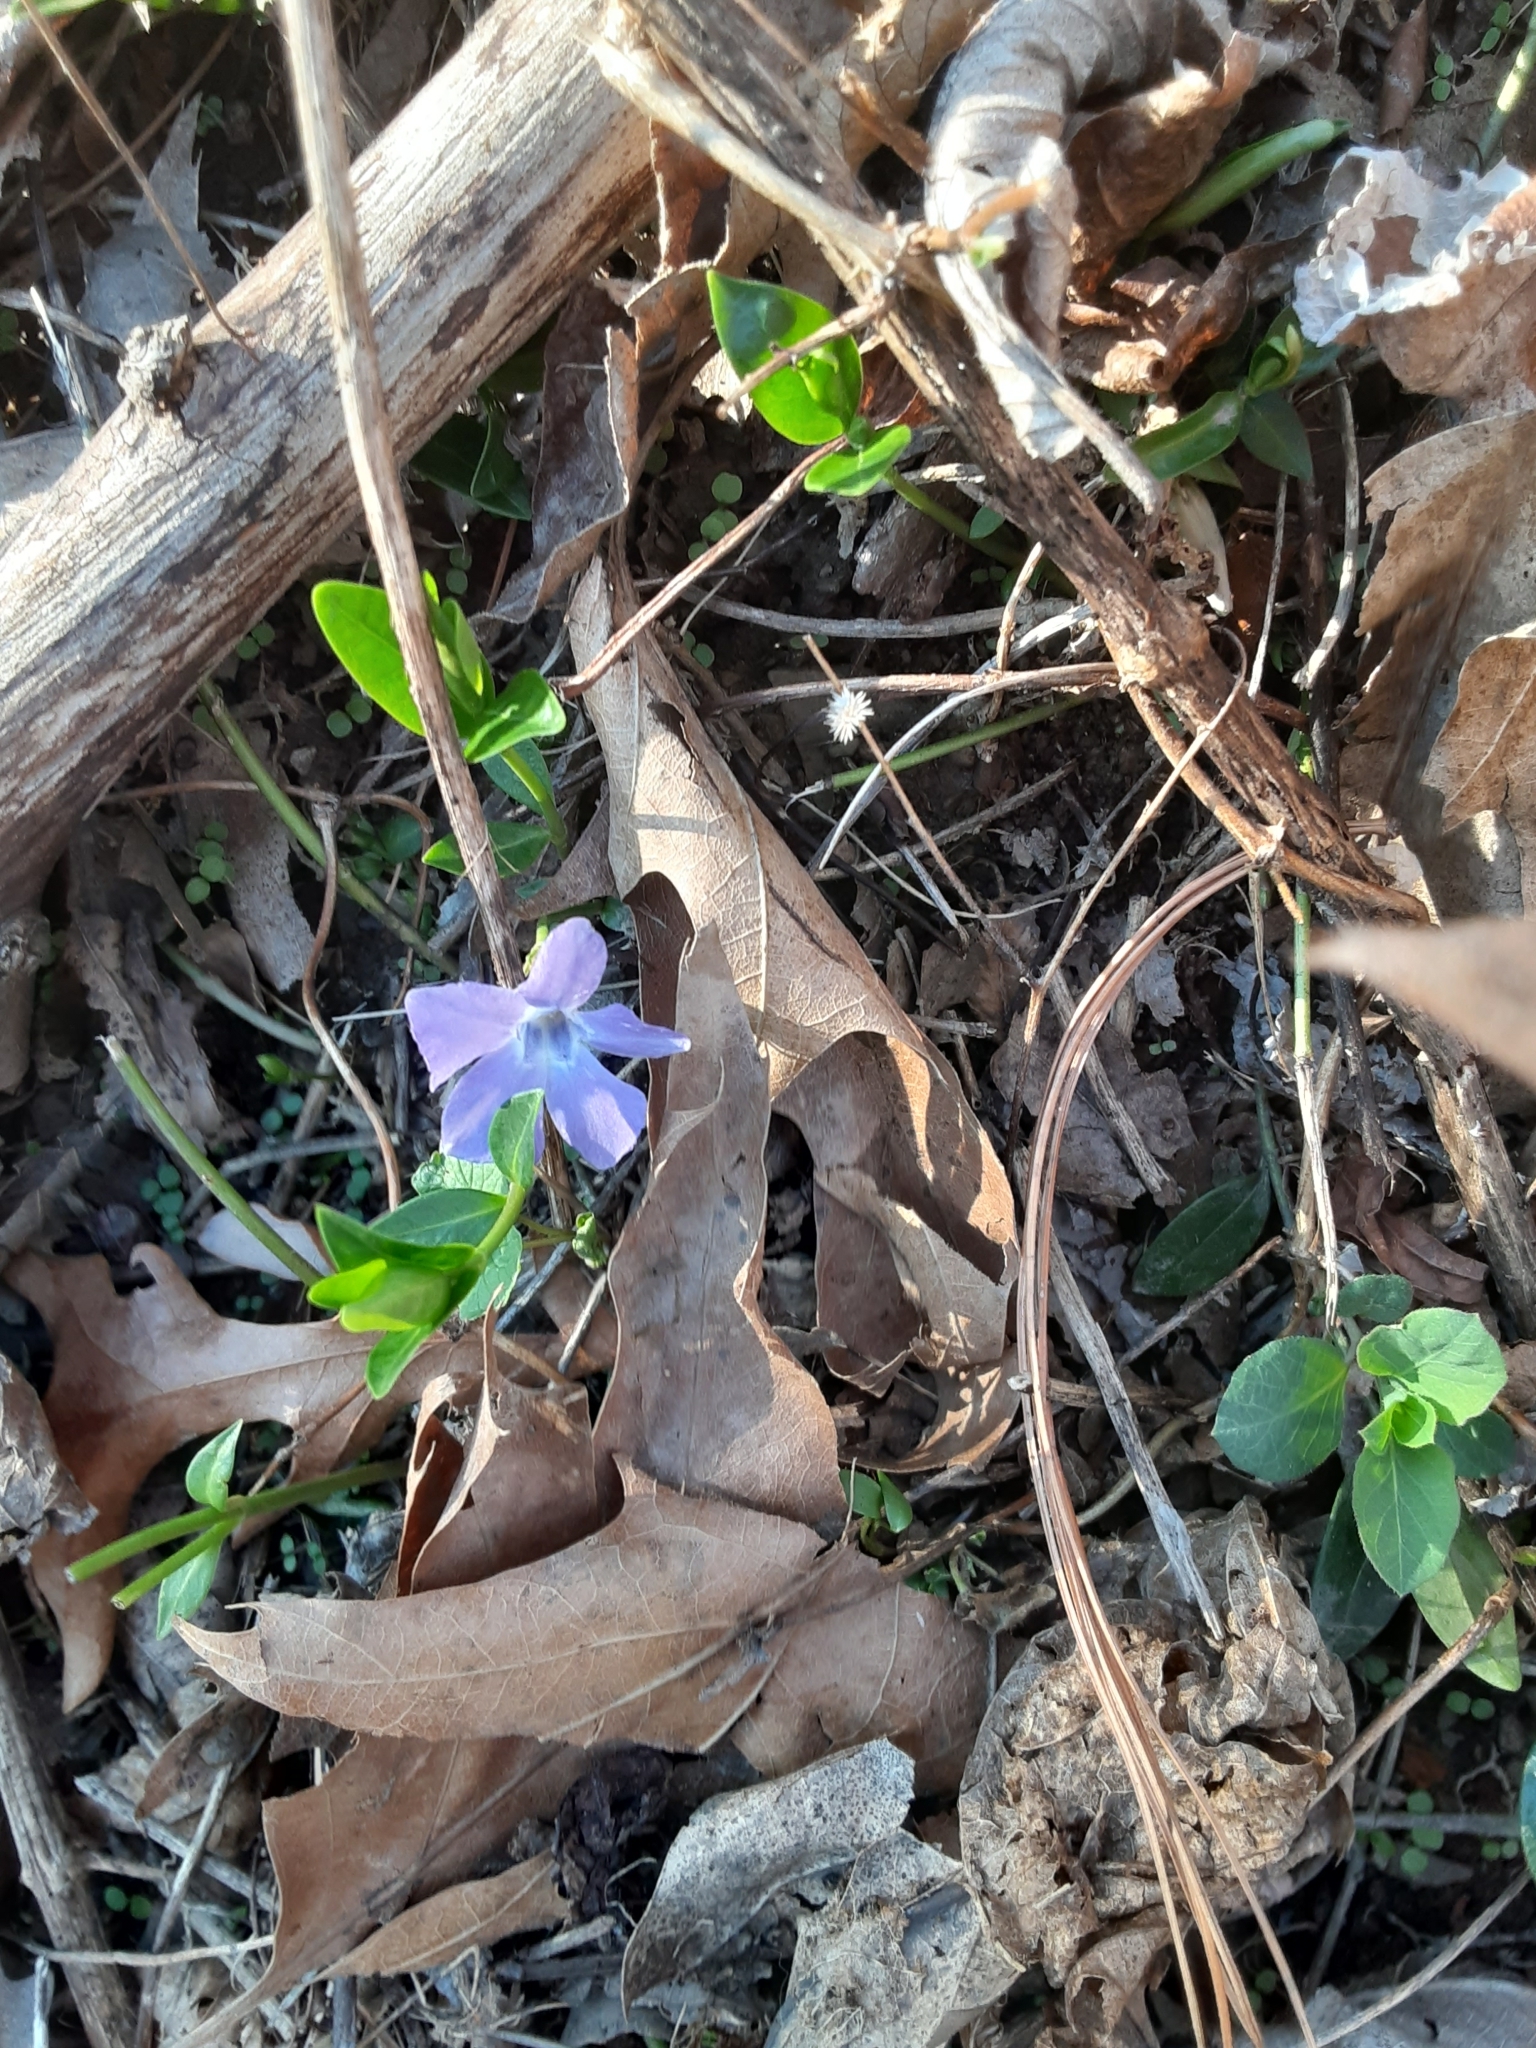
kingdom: Plantae
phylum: Tracheophyta
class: Magnoliopsida
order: Gentianales
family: Apocynaceae
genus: Vinca
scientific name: Vinca minor
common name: Lesser periwinkle
